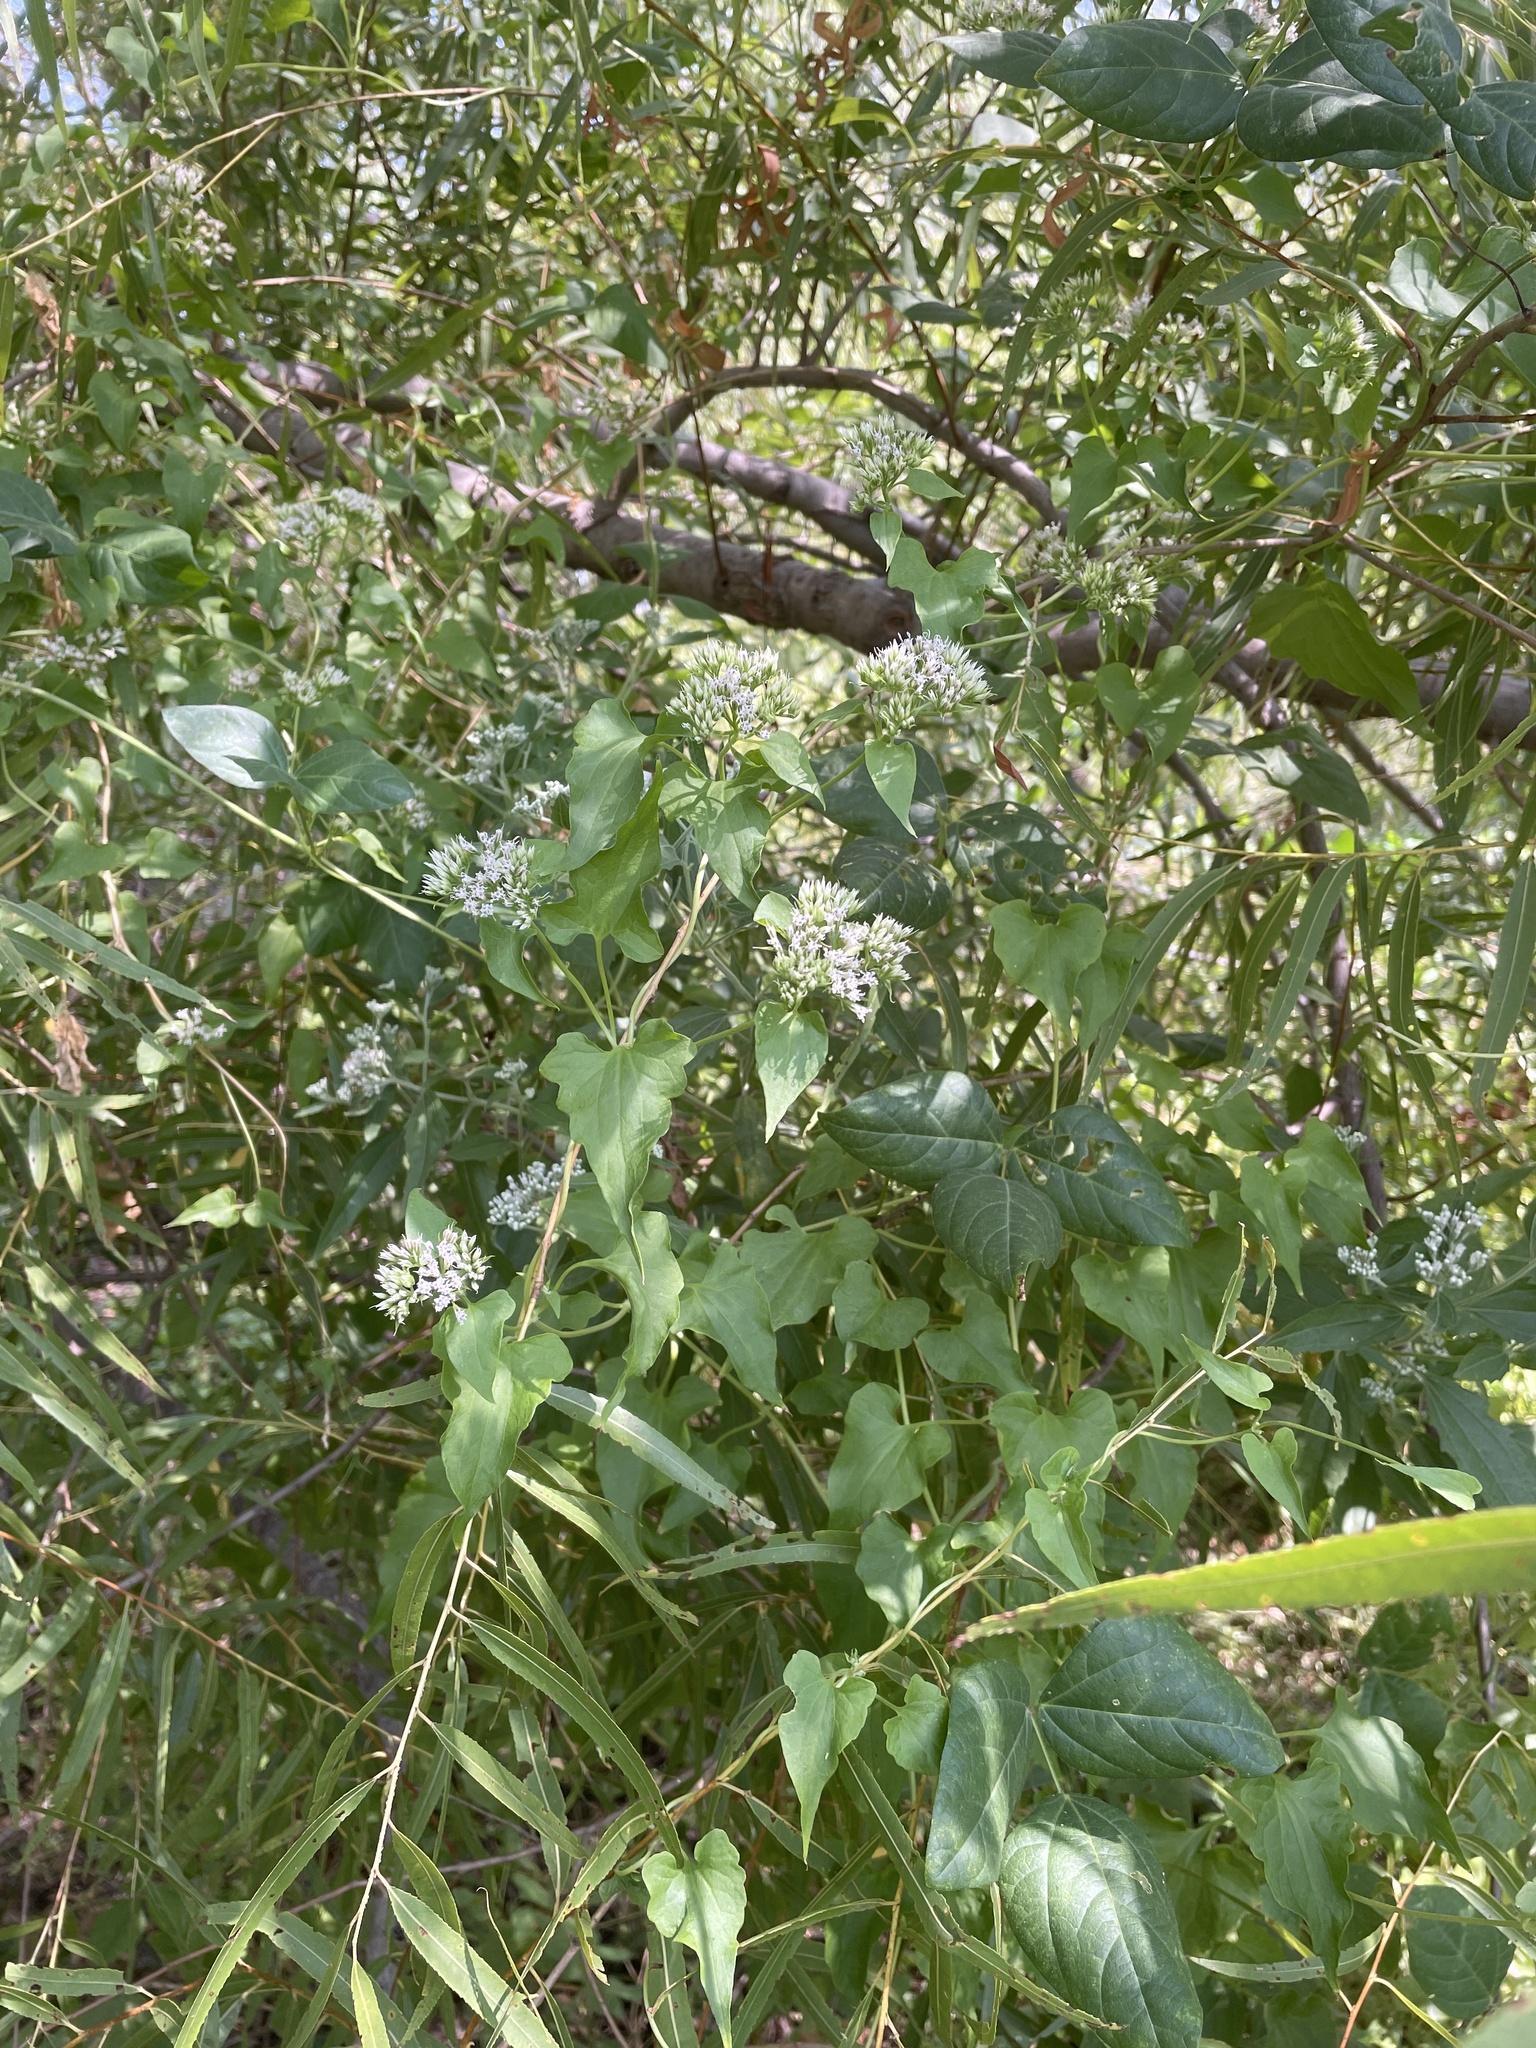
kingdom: Plantae
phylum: Tracheophyta
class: Magnoliopsida
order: Asterales
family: Asteraceae
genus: Mikania
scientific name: Mikania scandens
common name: Climbing hempvine
